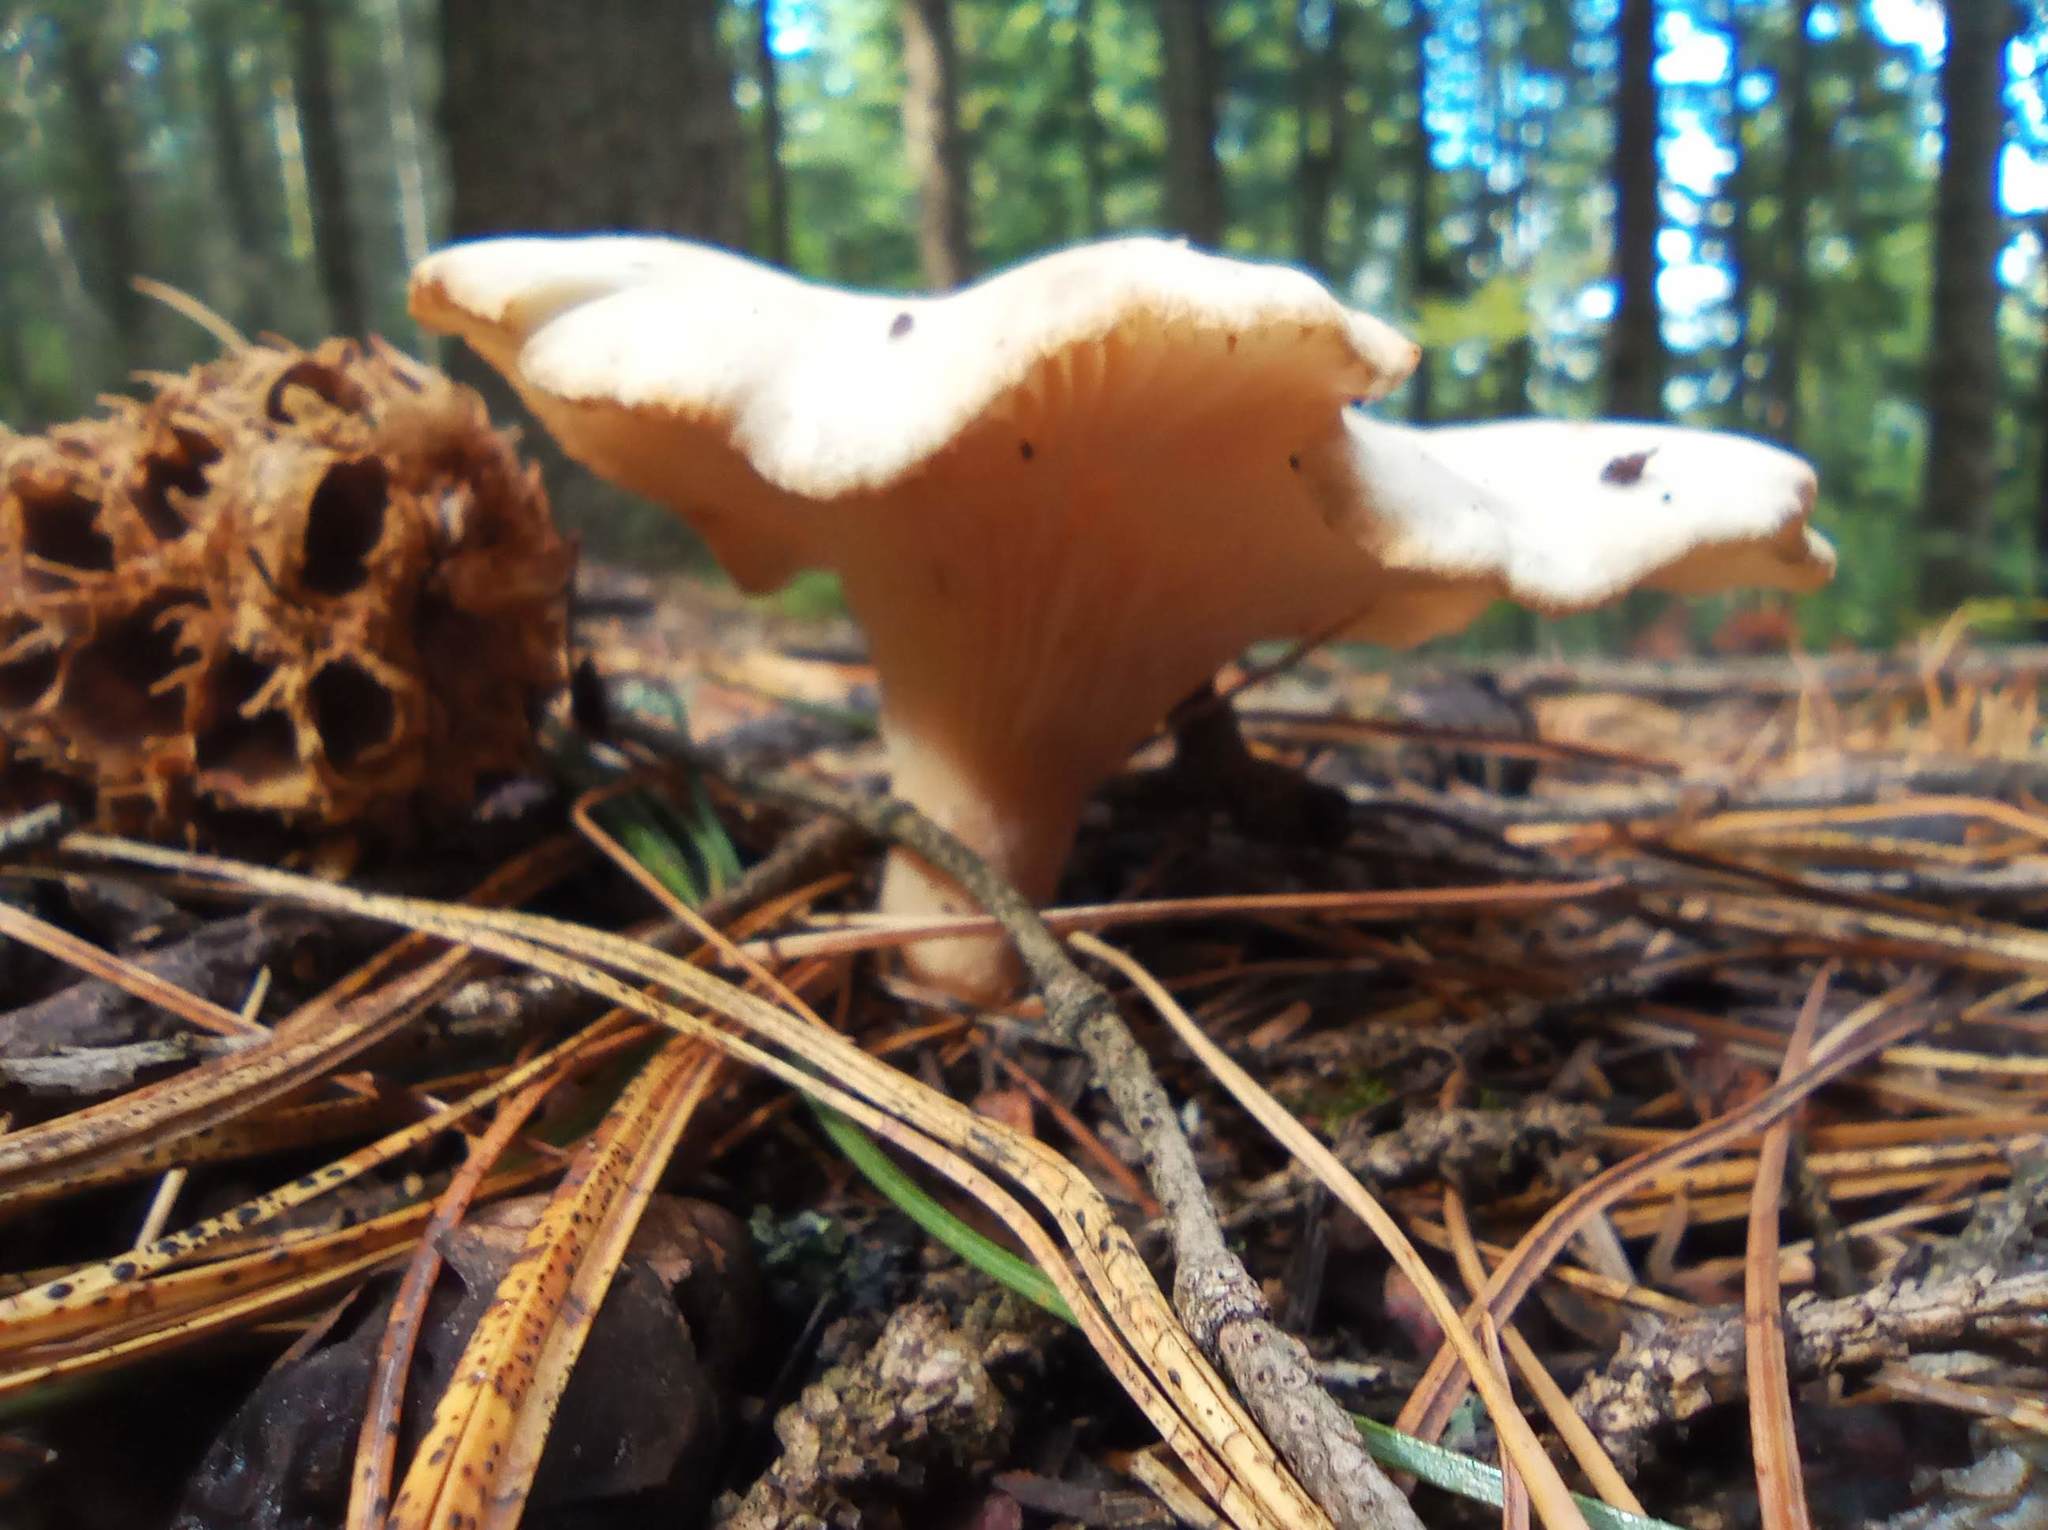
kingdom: Fungi
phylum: Basidiomycota
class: Agaricomycetes
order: Agaricales
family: Tricholomataceae
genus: Infundibulicybe
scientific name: Infundibulicybe gibba
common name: Common funnel
